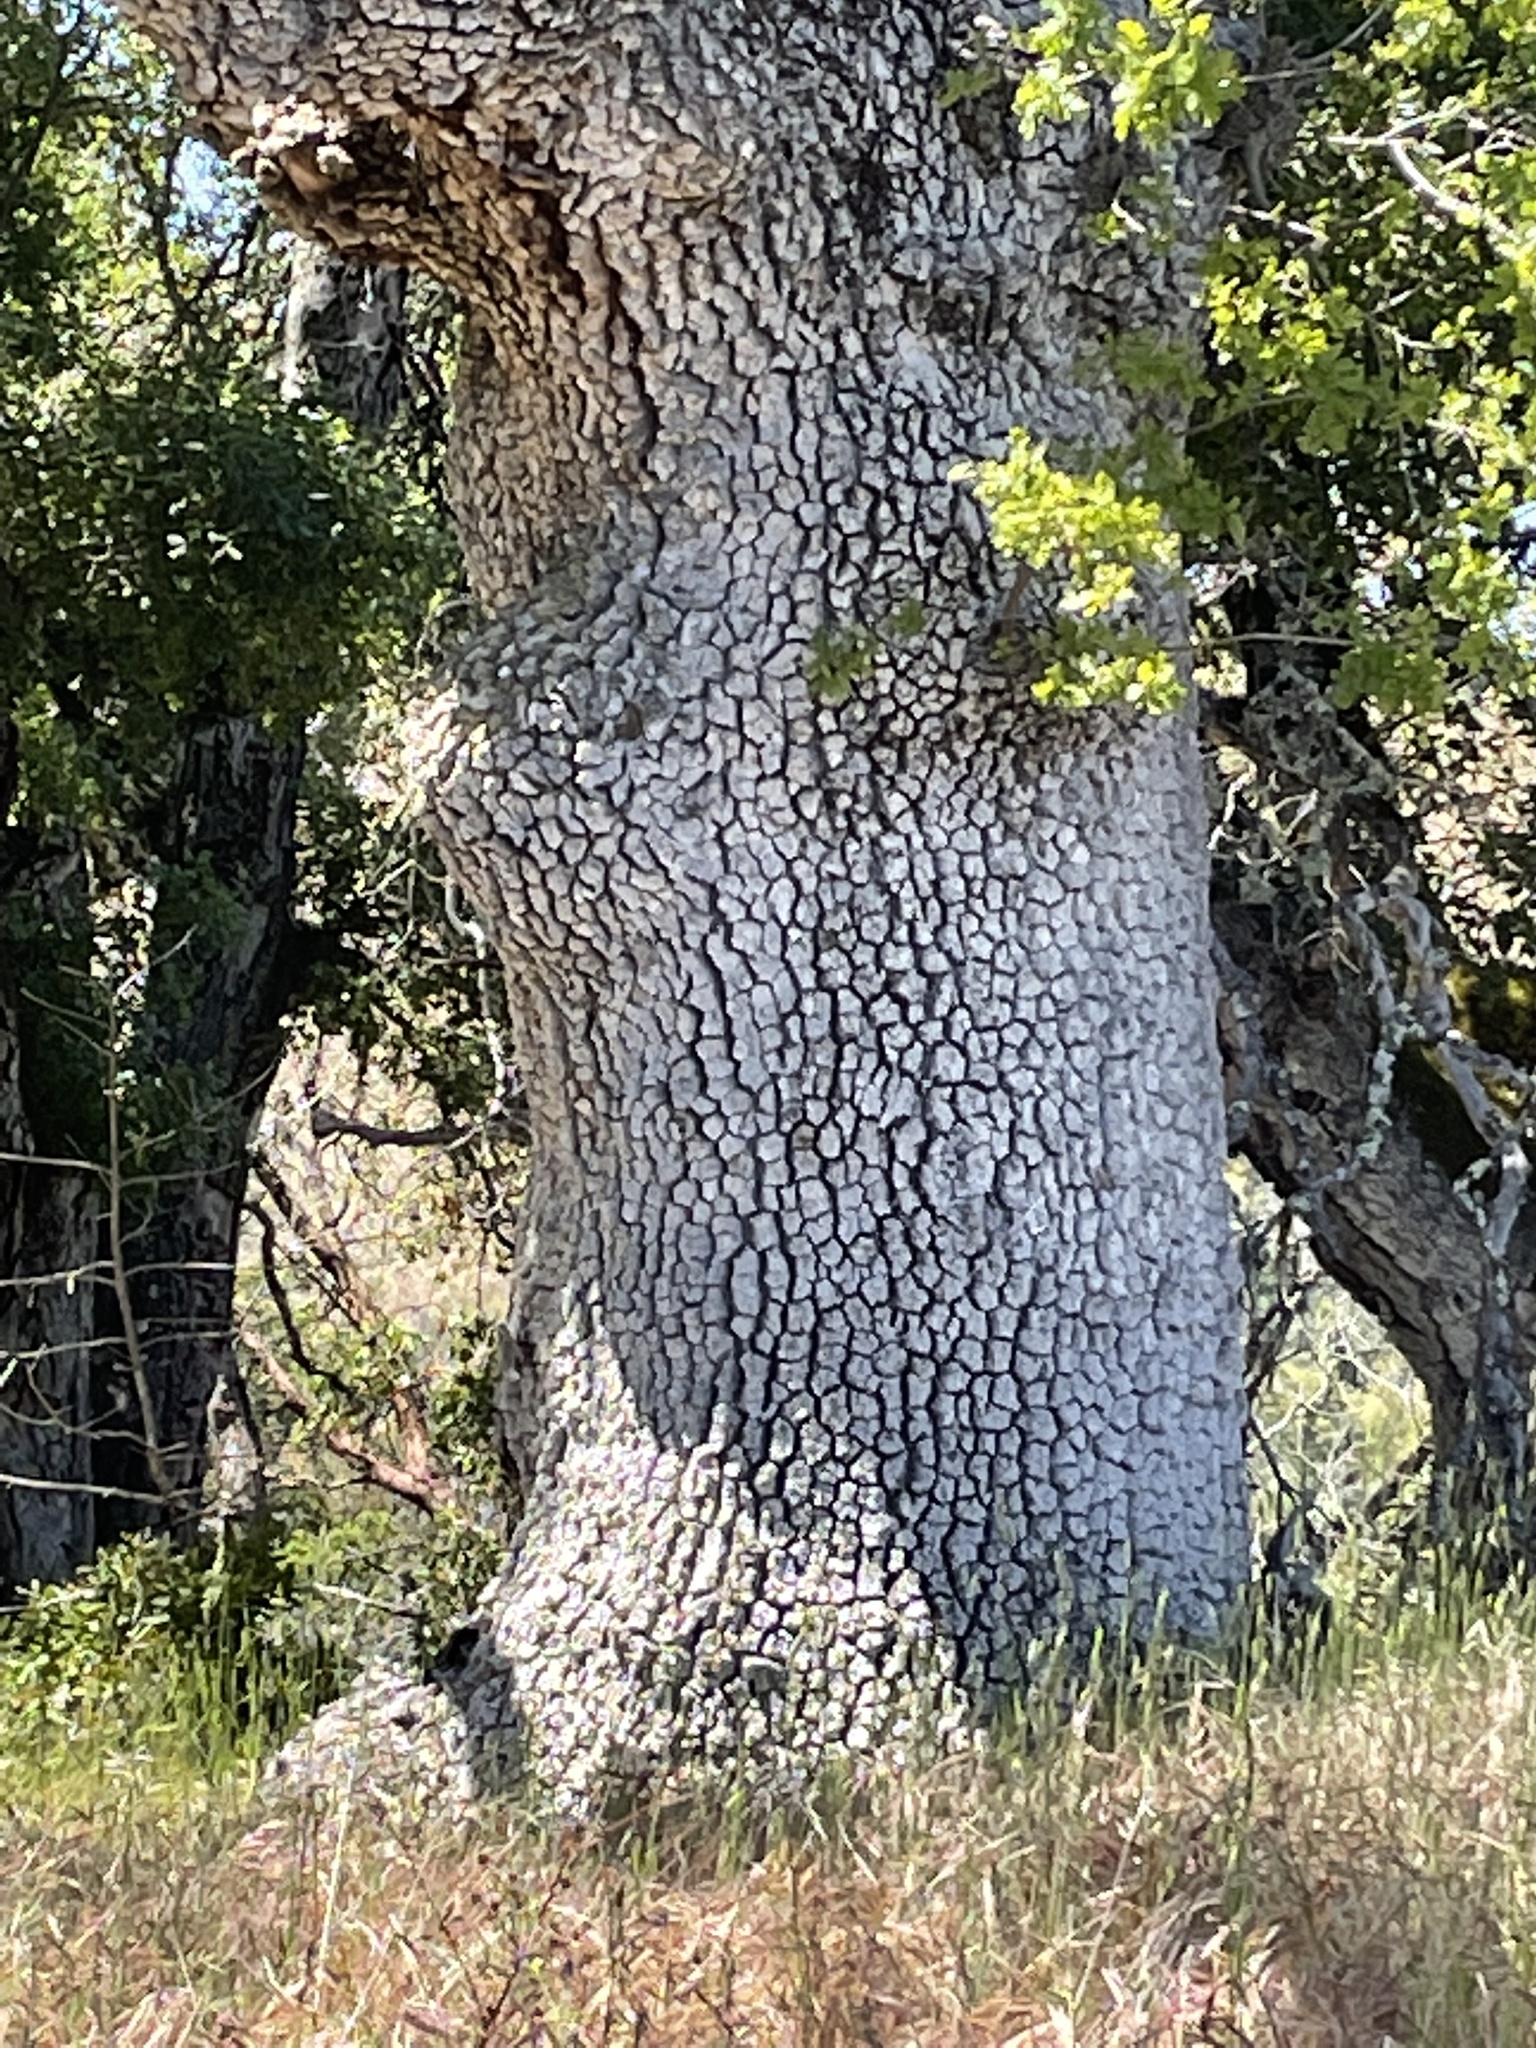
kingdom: Plantae
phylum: Tracheophyta
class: Magnoliopsida
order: Fagales
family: Fagaceae
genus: Quercus
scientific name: Quercus lobata
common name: Valley oak
